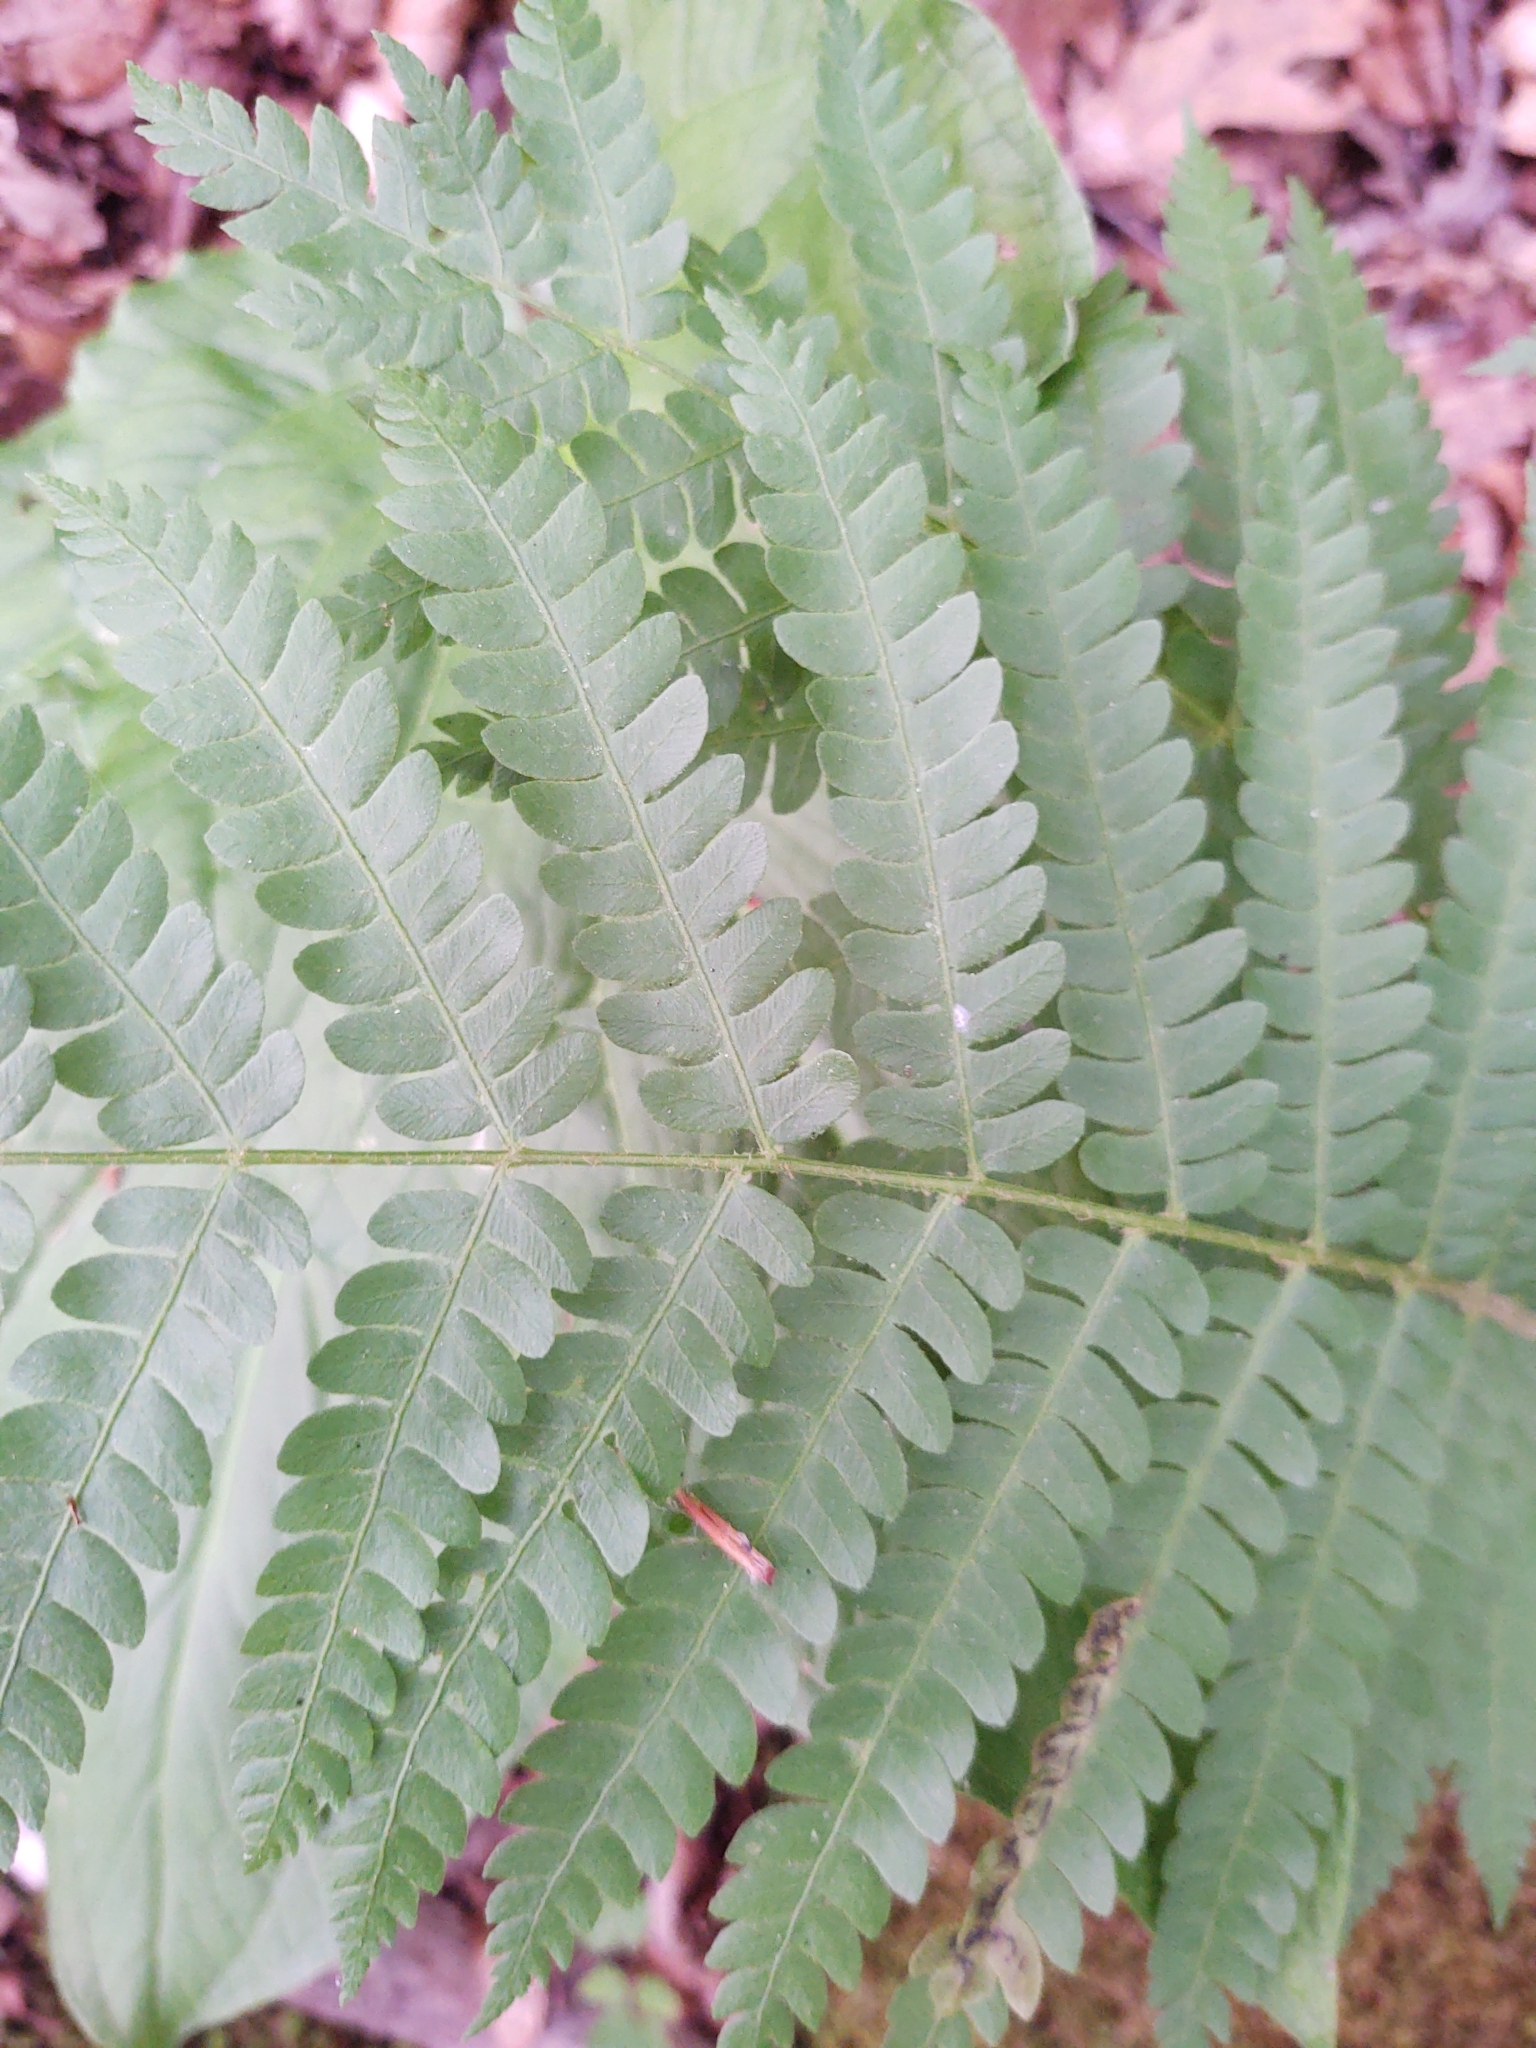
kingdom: Plantae
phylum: Tracheophyta
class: Polypodiopsida
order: Osmundales
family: Osmundaceae
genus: Osmundastrum
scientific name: Osmundastrum cinnamomeum
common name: Cinnamon fern
